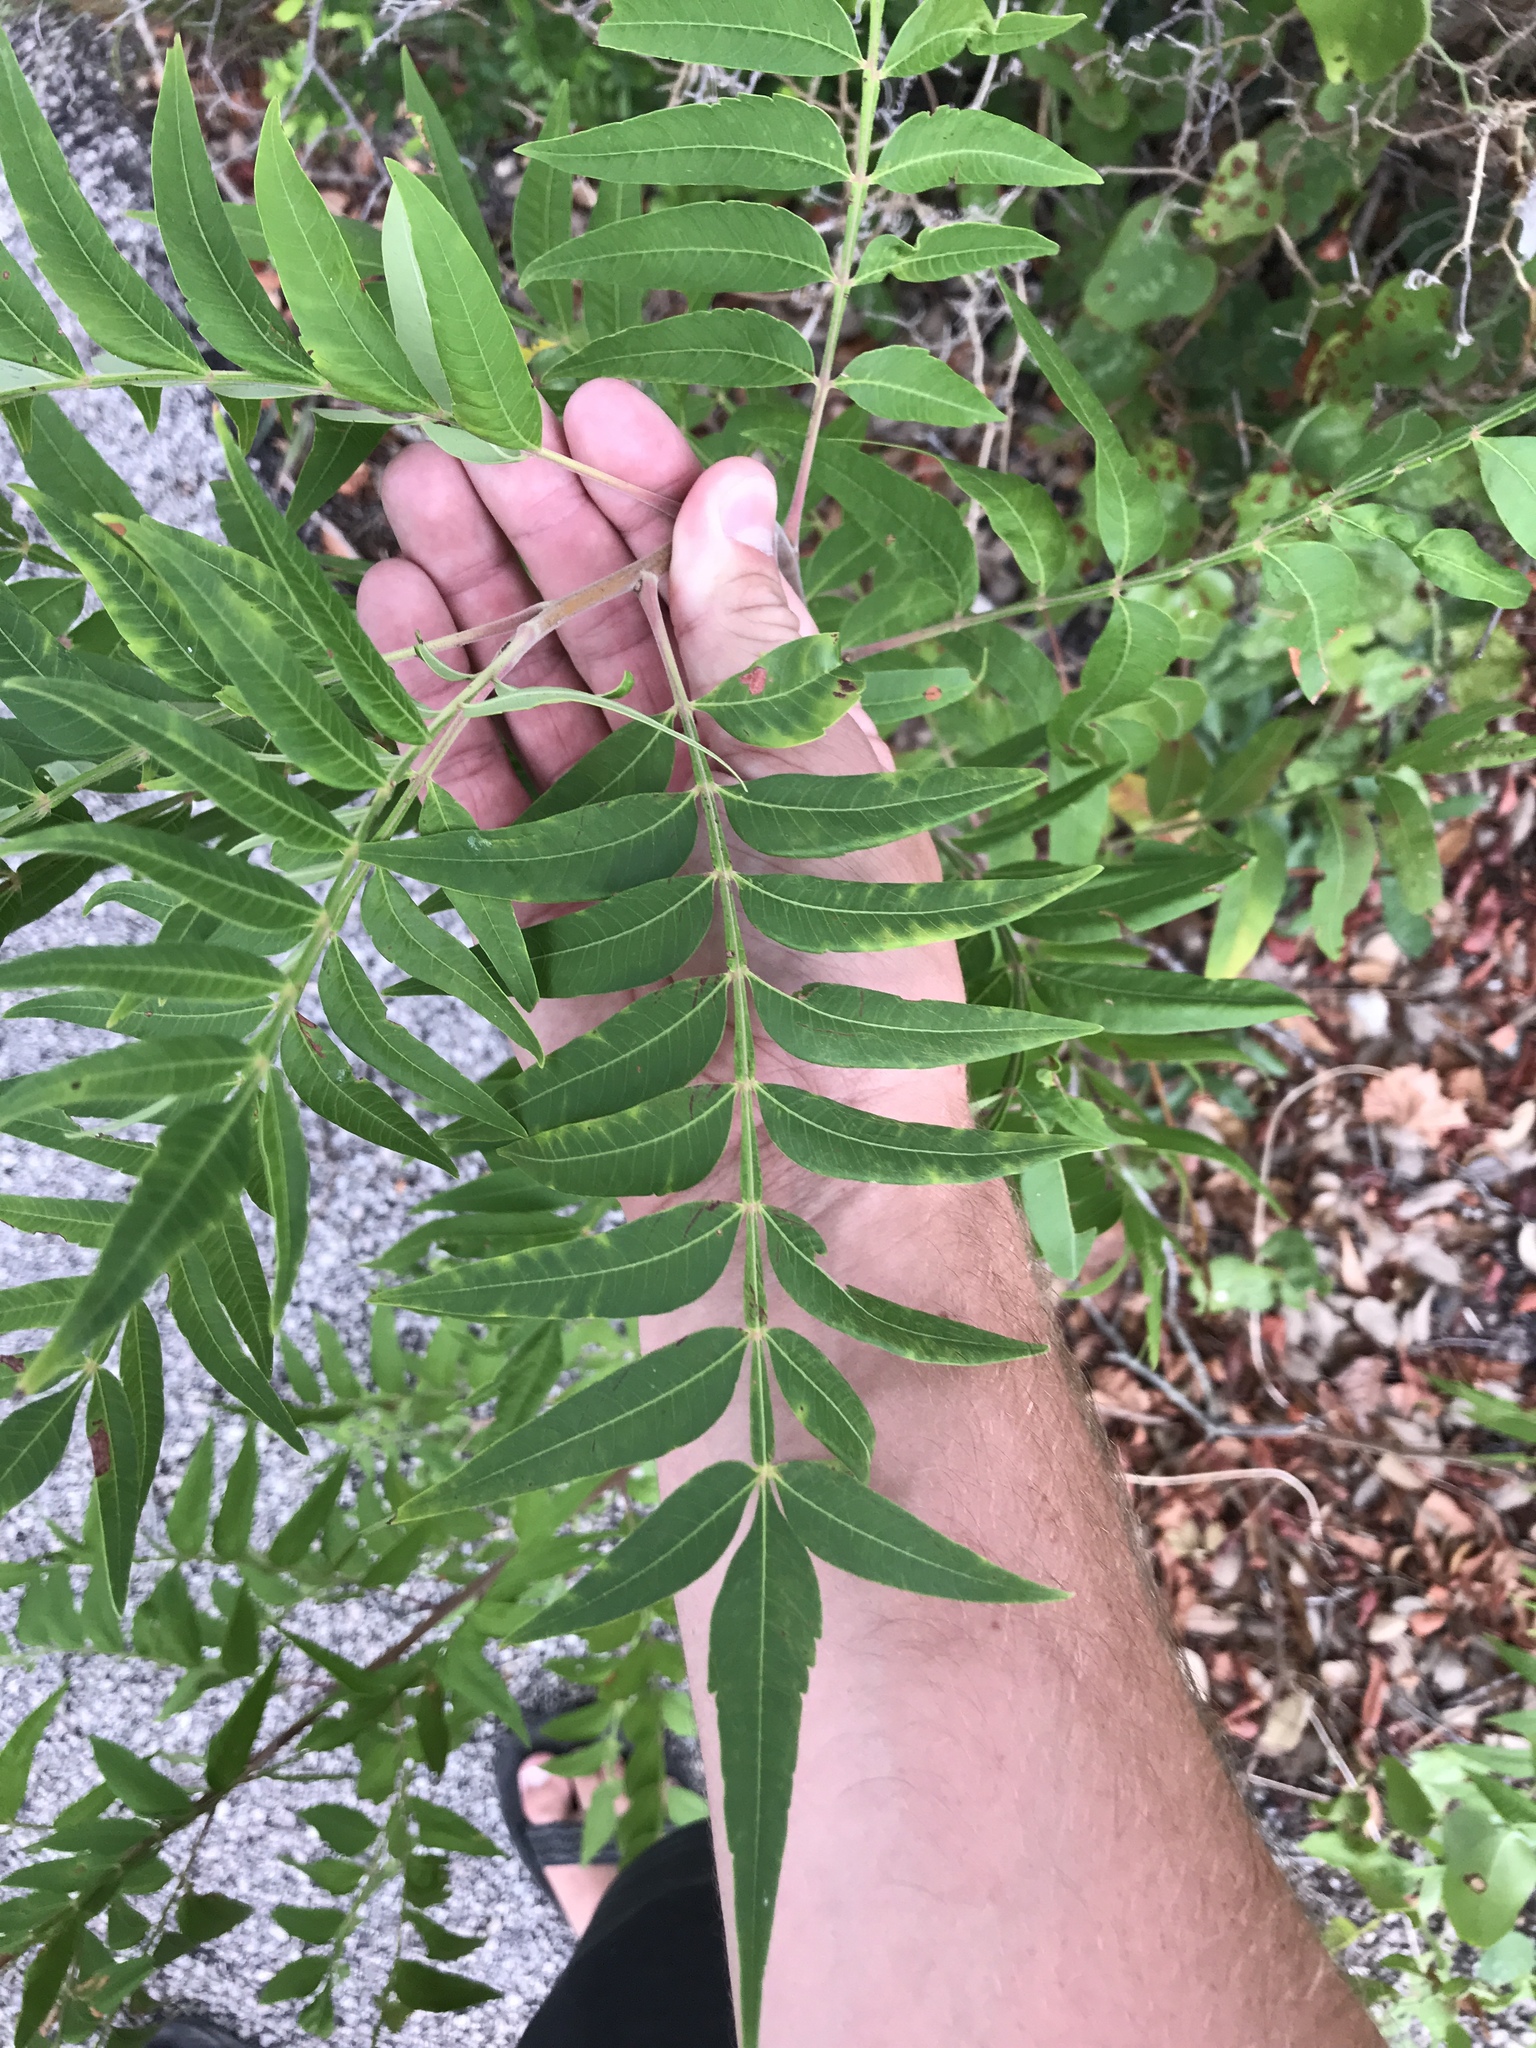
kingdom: Plantae
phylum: Tracheophyta
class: Magnoliopsida
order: Sapindales
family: Anacardiaceae
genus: Rhus
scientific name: Rhus lanceolata
